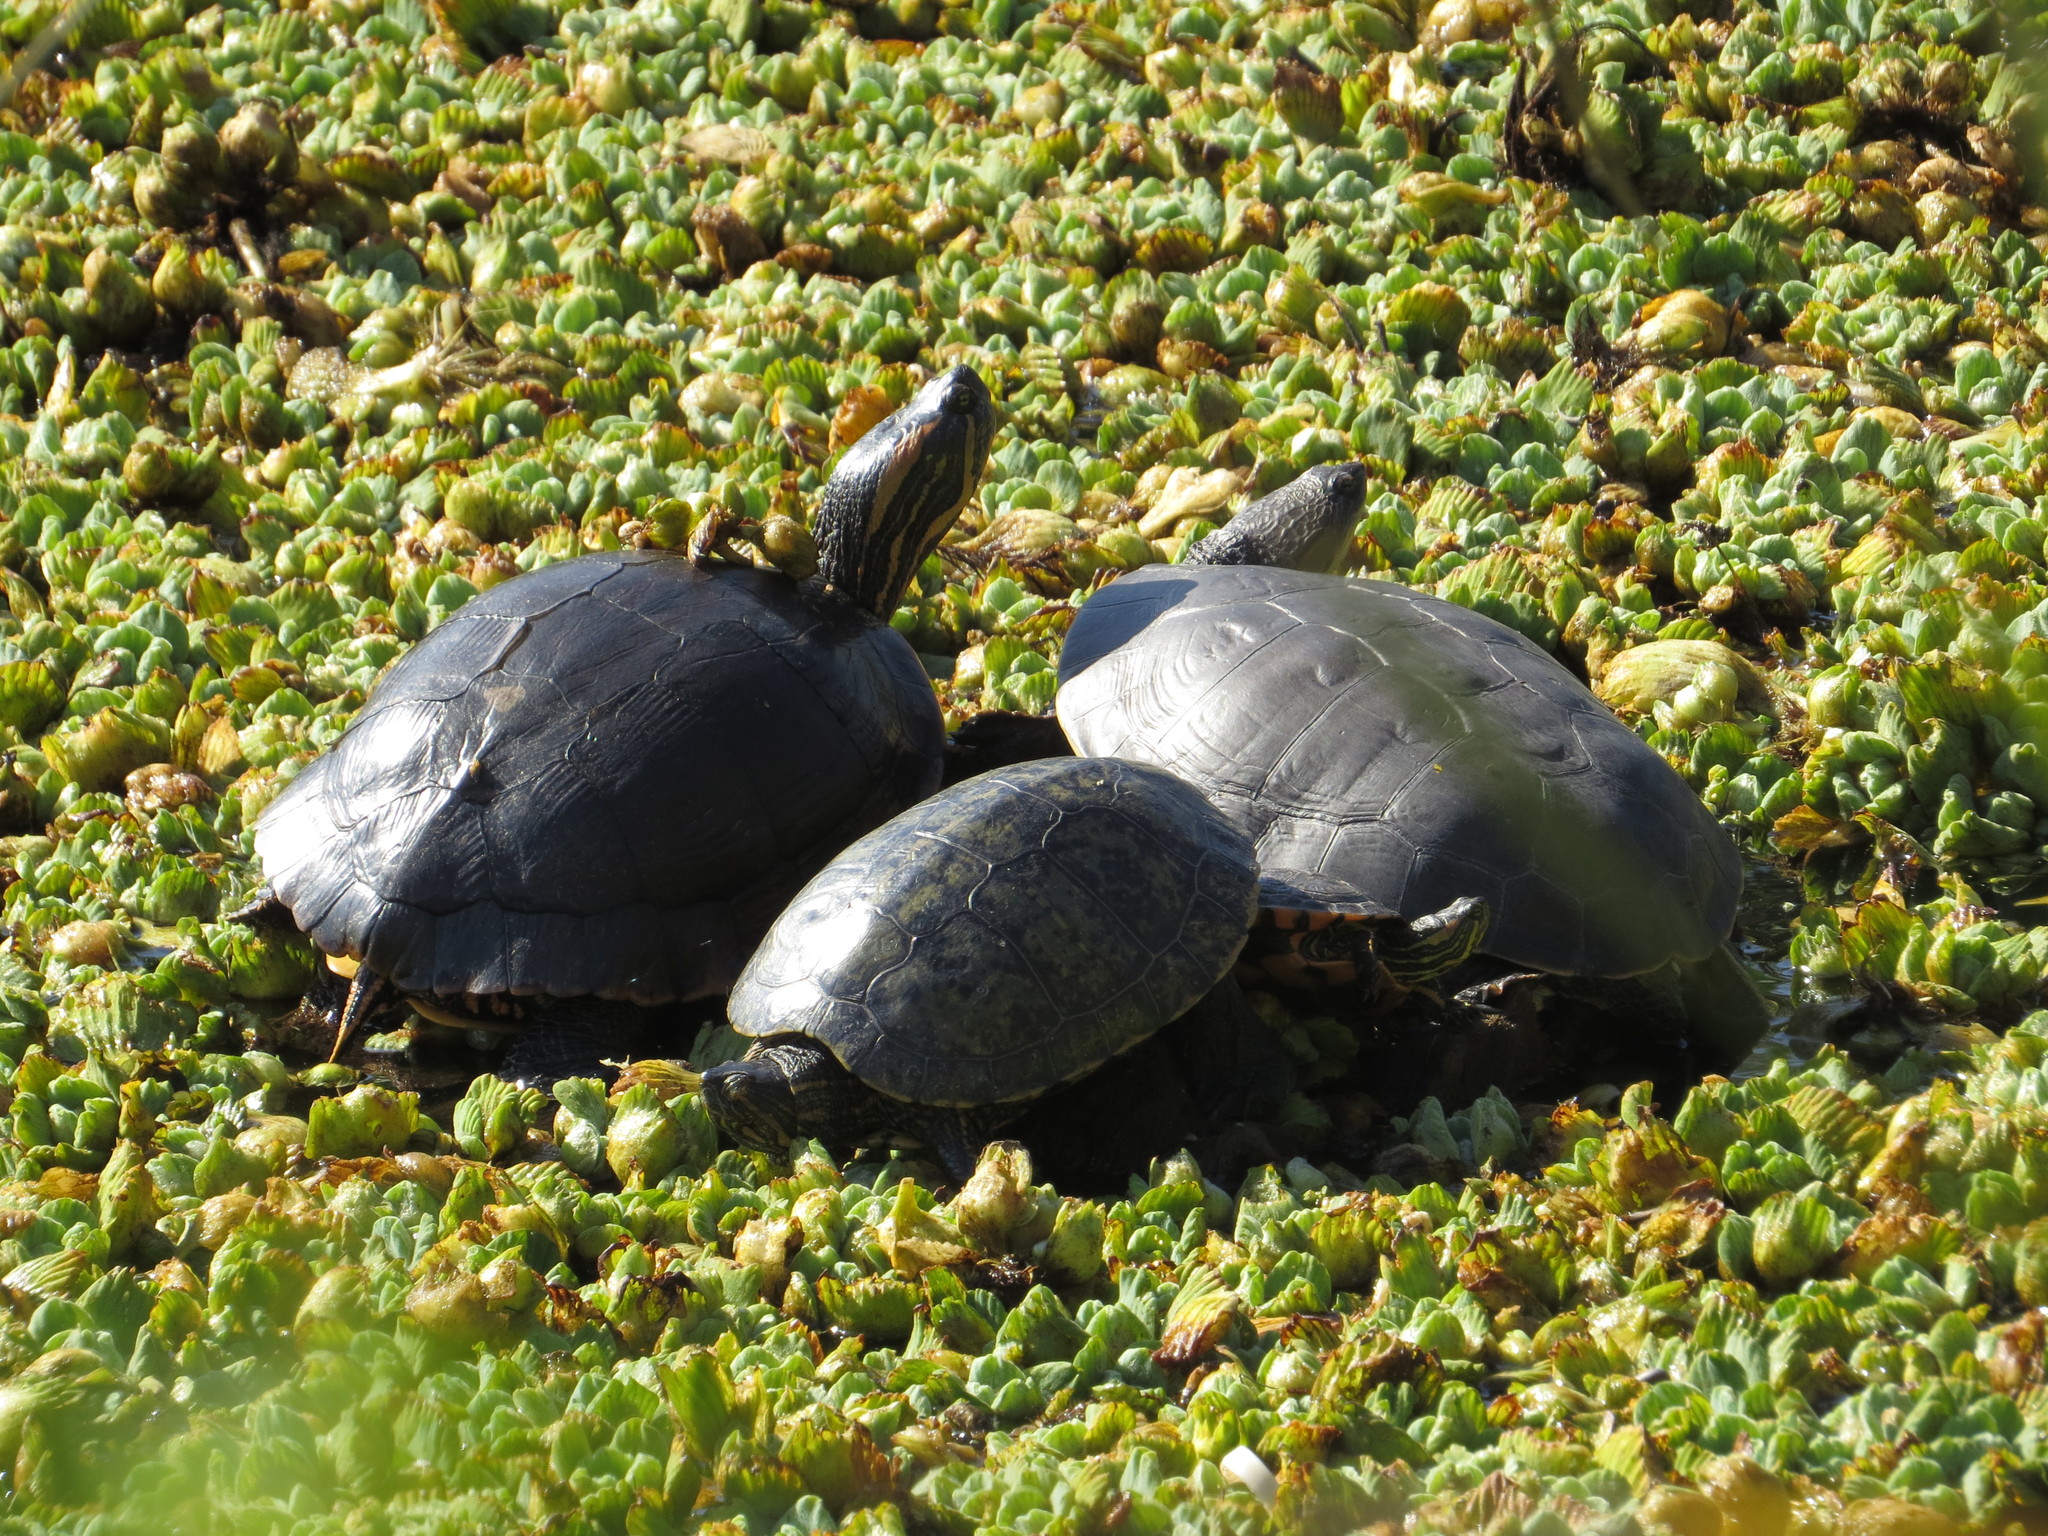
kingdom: Animalia
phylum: Chordata
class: Testudines
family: Emydidae
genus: Trachemys
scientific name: Trachemys dorbigni
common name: Black-bellied slider
